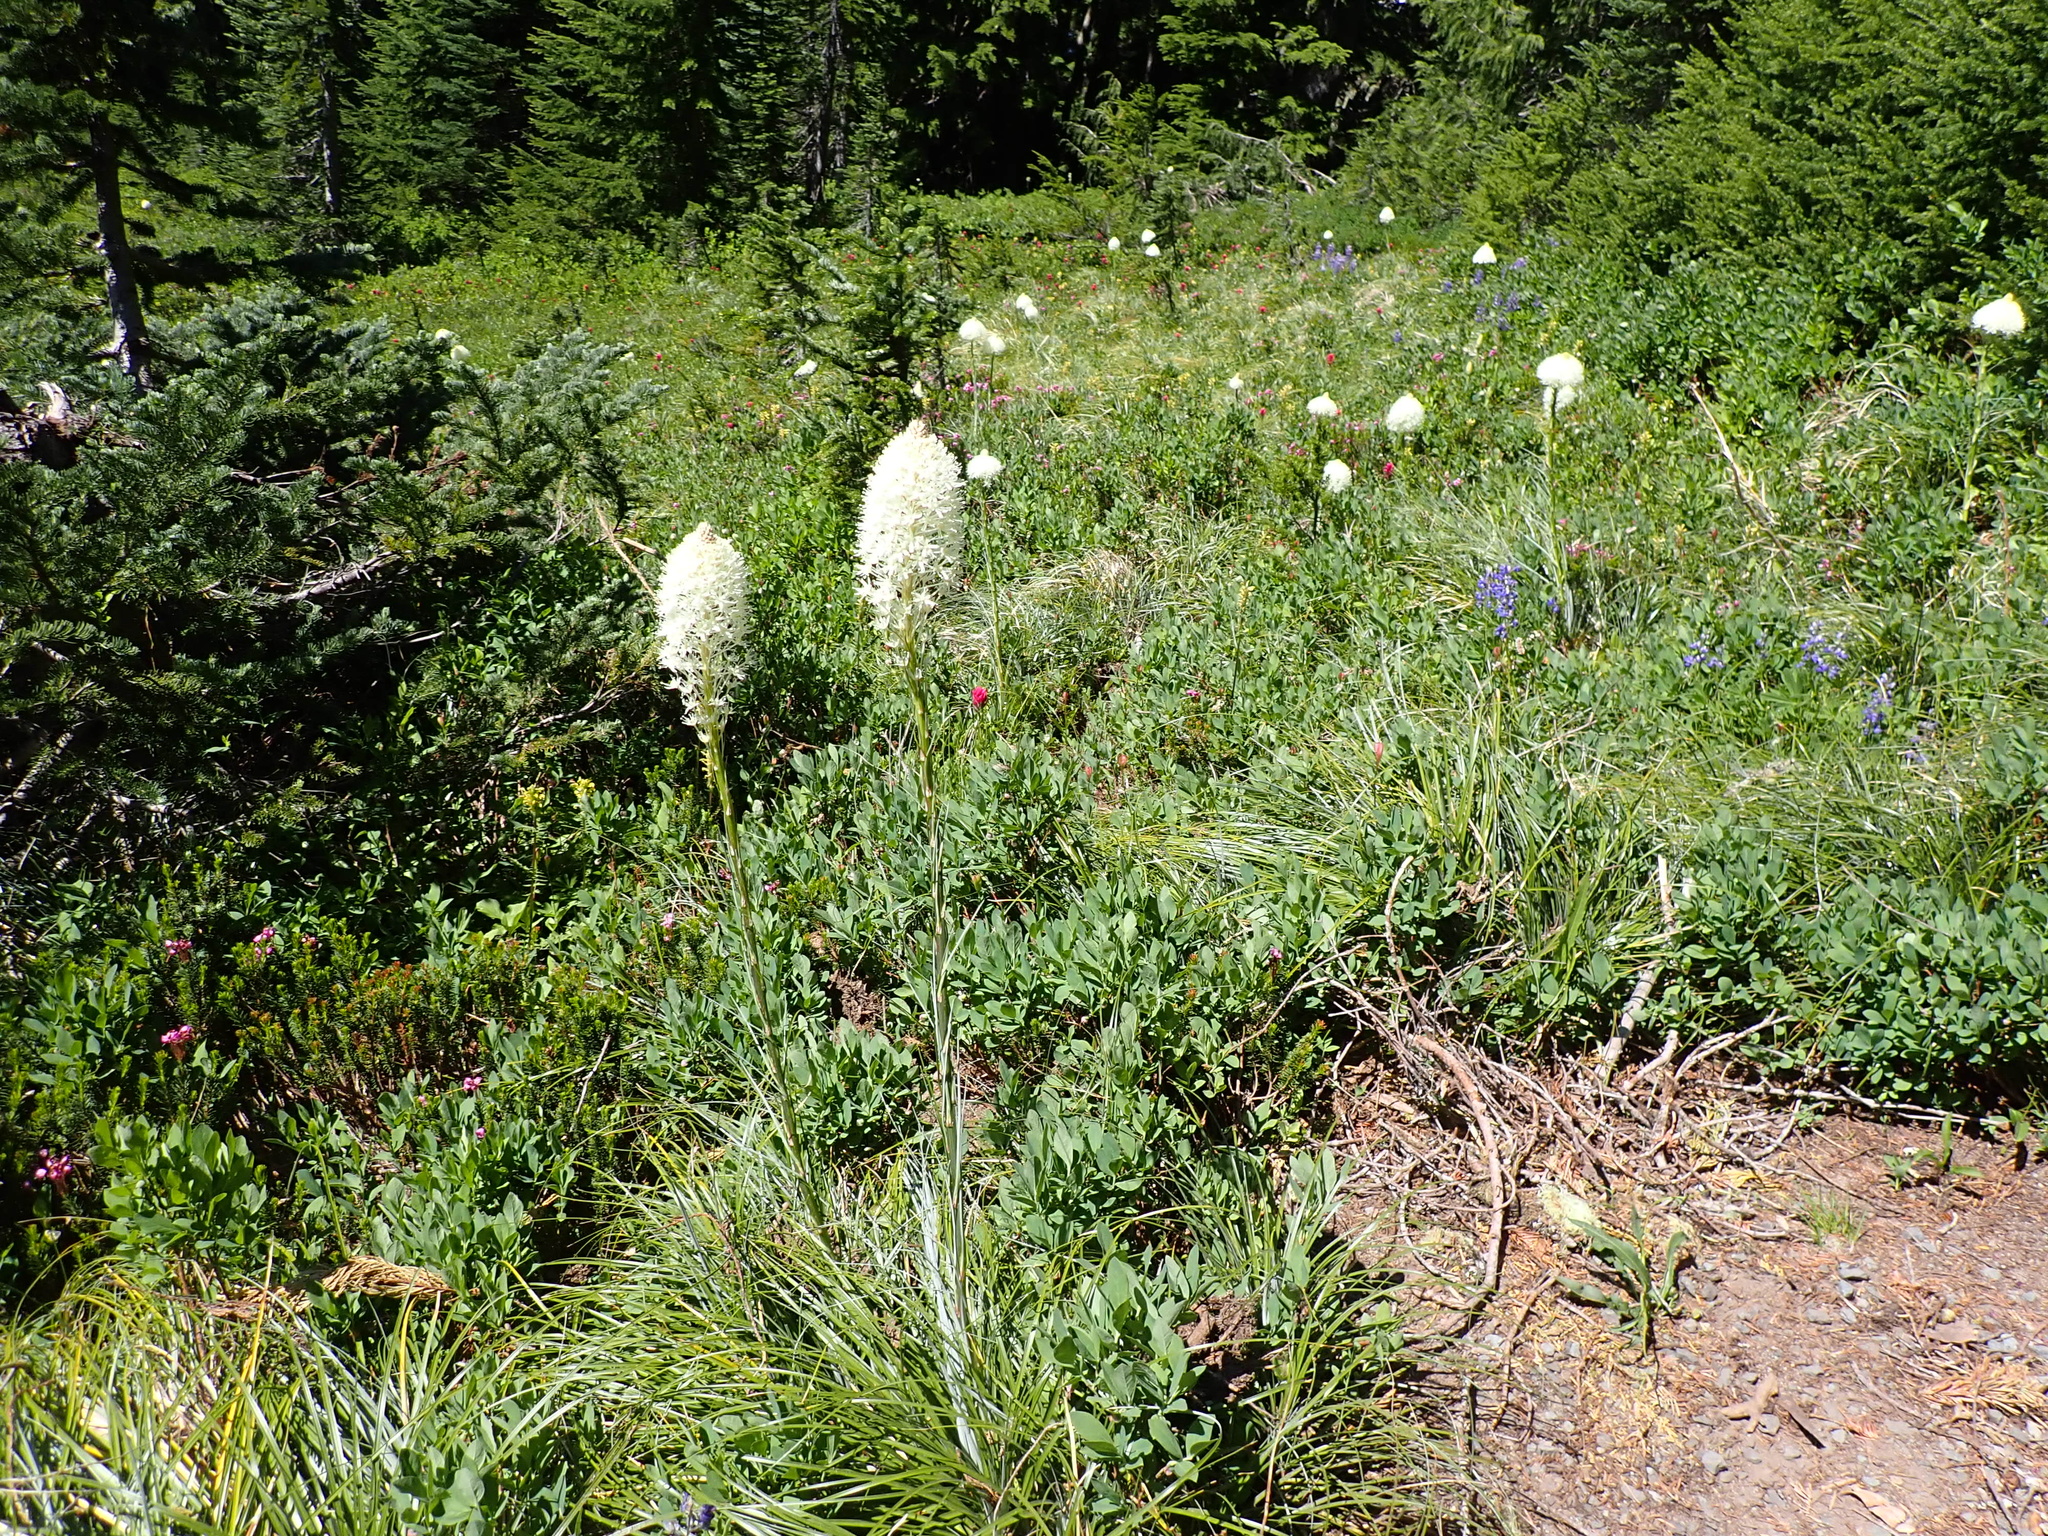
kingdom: Plantae
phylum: Tracheophyta
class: Liliopsida
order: Liliales
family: Melanthiaceae
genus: Xerophyllum
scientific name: Xerophyllum tenax
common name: Bear-grass
